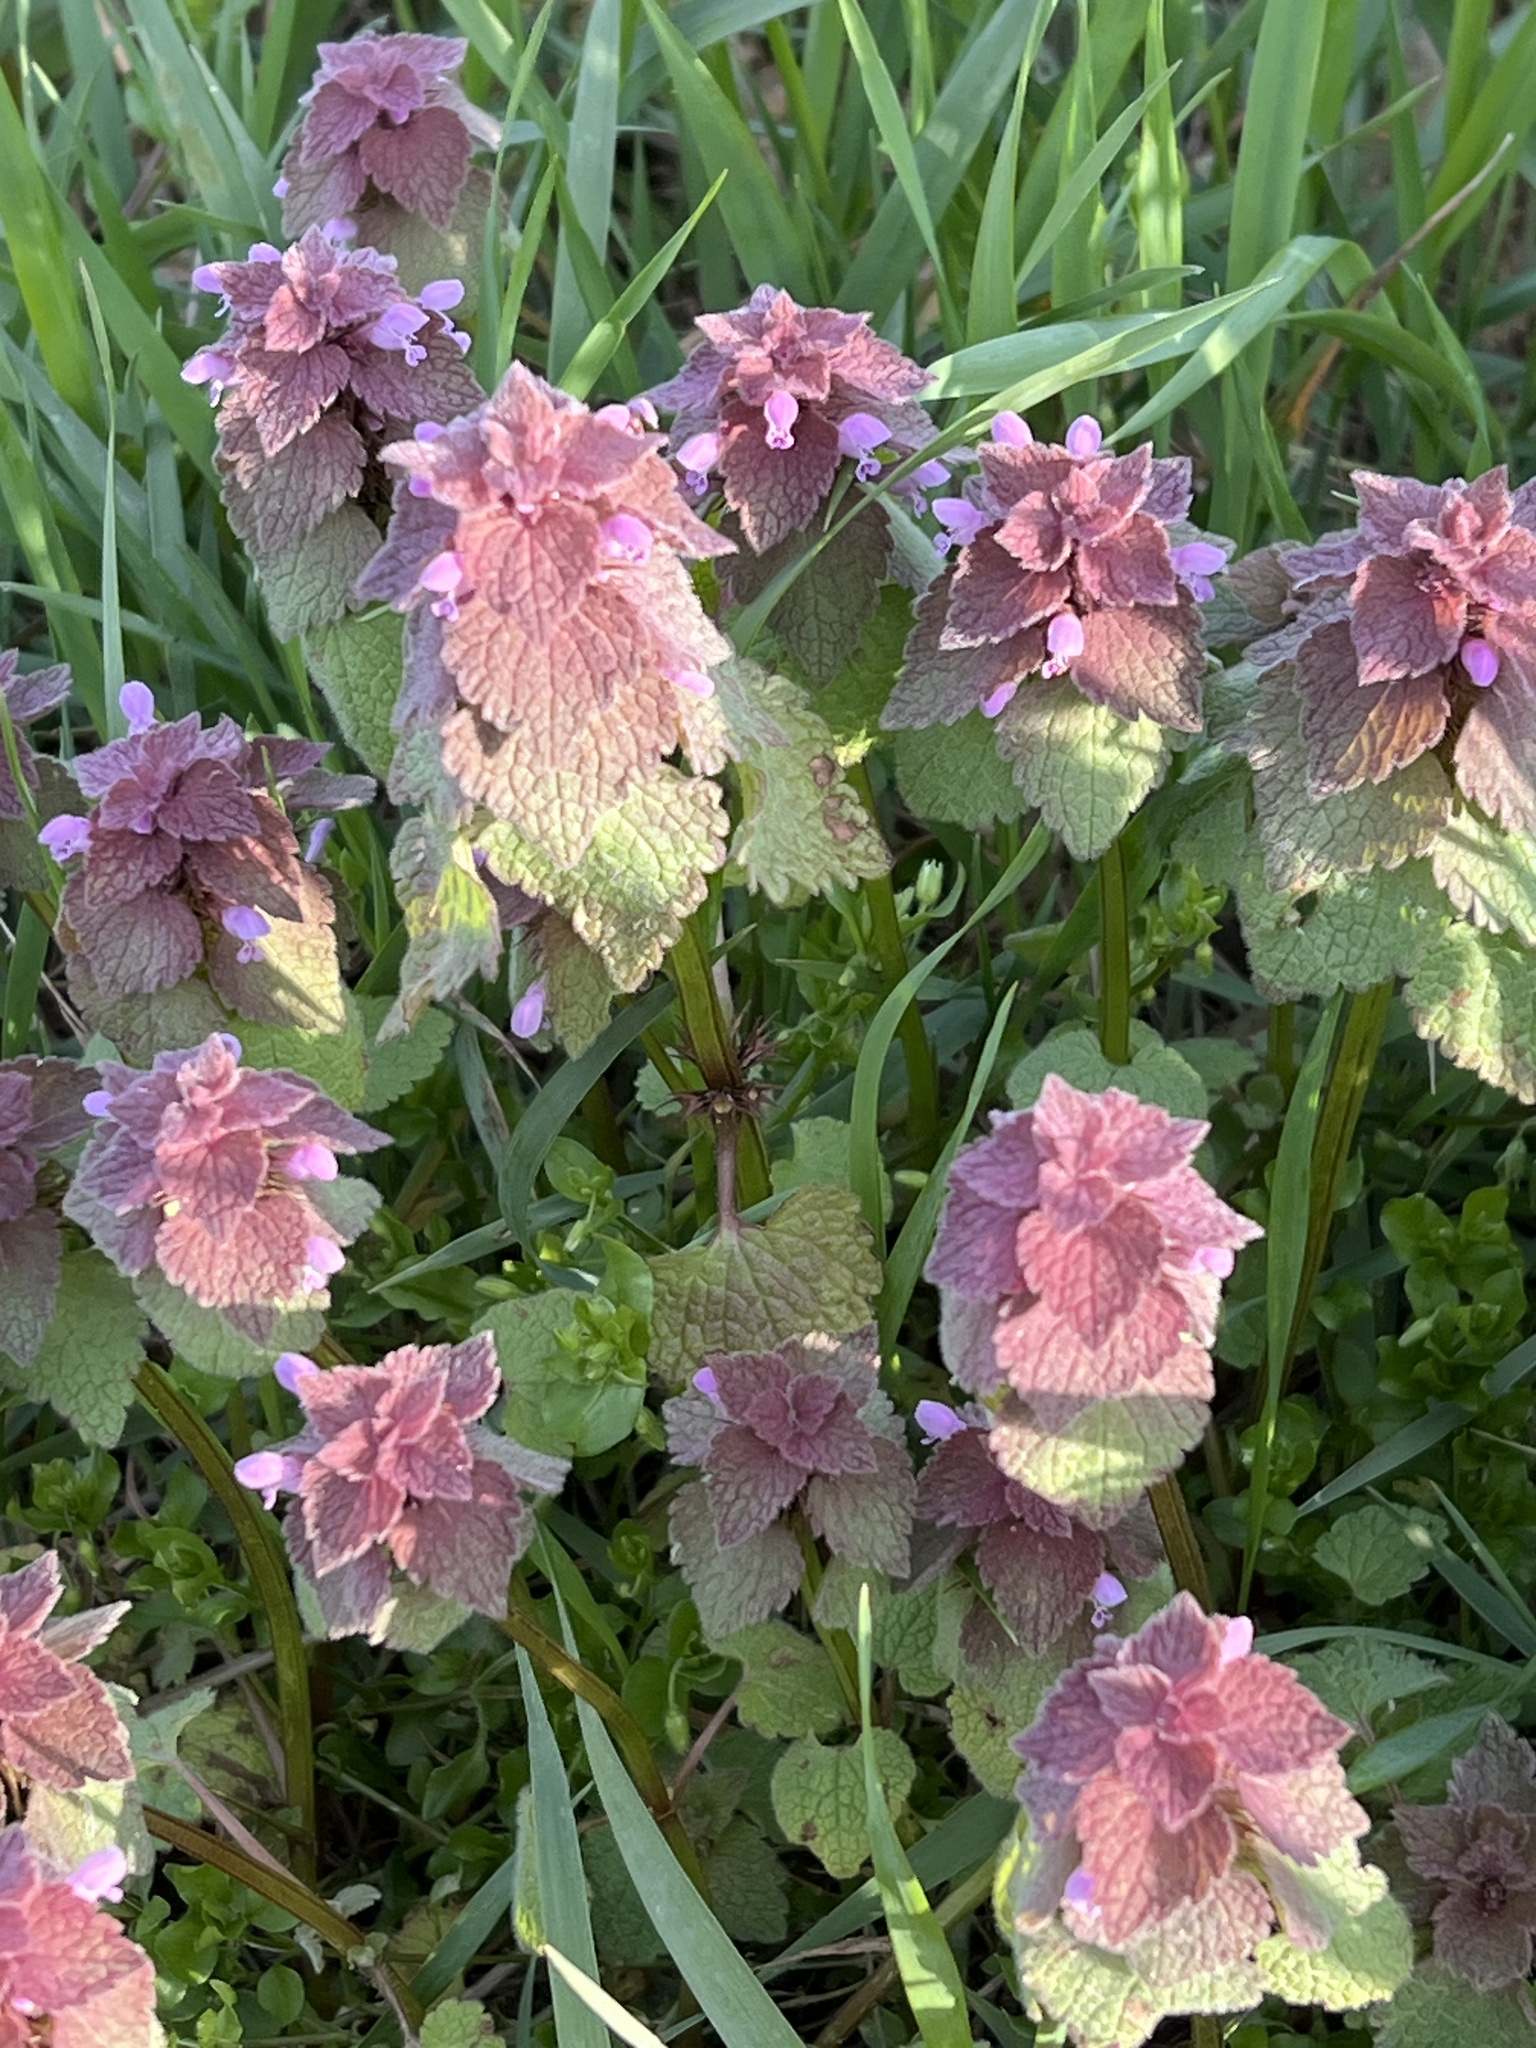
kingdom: Plantae
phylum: Tracheophyta
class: Magnoliopsida
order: Lamiales
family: Lamiaceae
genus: Lamium
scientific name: Lamium purpureum
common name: Red dead-nettle
